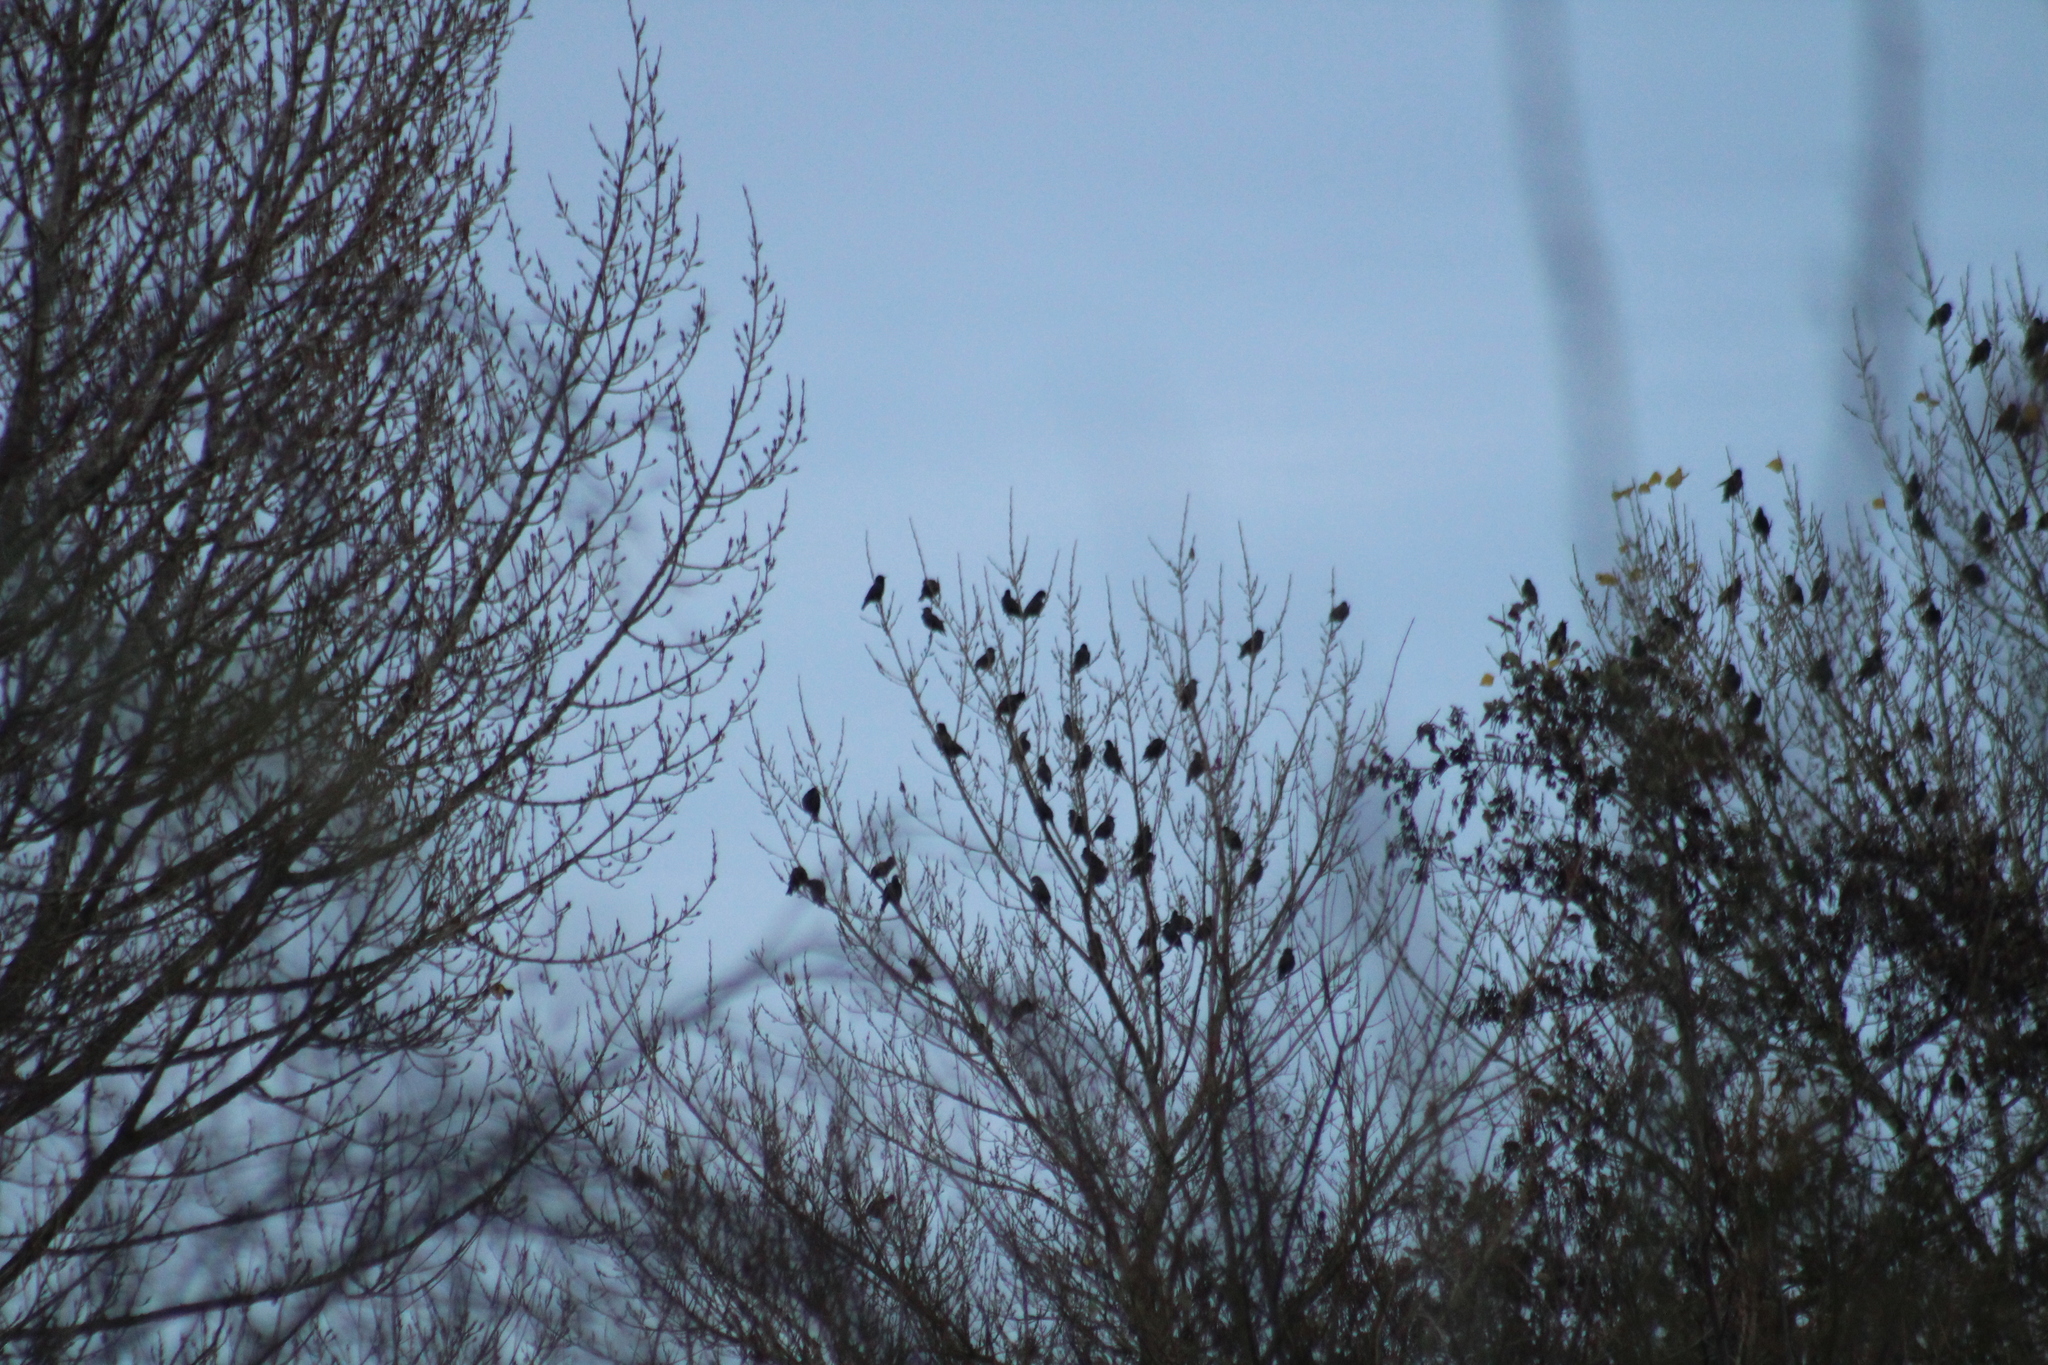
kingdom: Animalia
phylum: Chordata
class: Aves
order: Passeriformes
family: Sturnidae
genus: Sturnus
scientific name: Sturnus vulgaris
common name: Common starling
